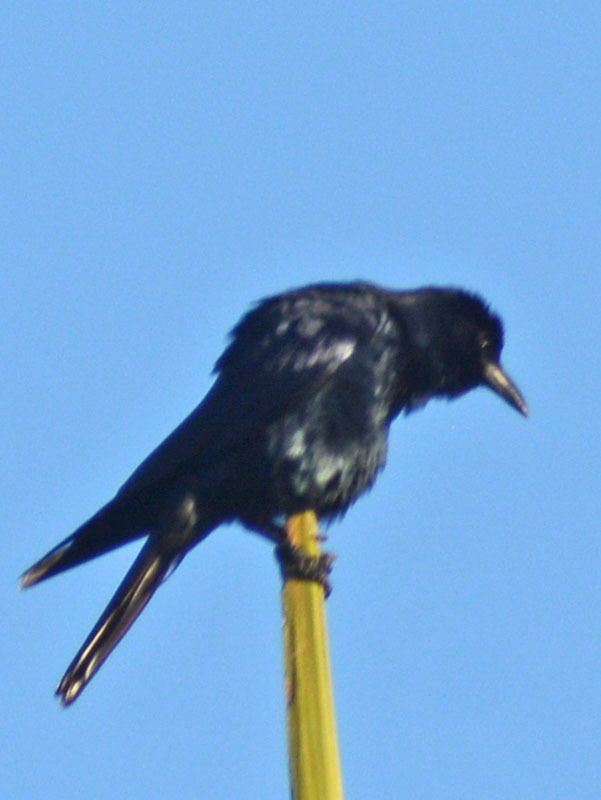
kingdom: Animalia
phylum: Chordata
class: Aves
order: Passeriformes
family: Corvidae
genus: Corvus
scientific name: Corvus sinaloae
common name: Sinaloa crow
